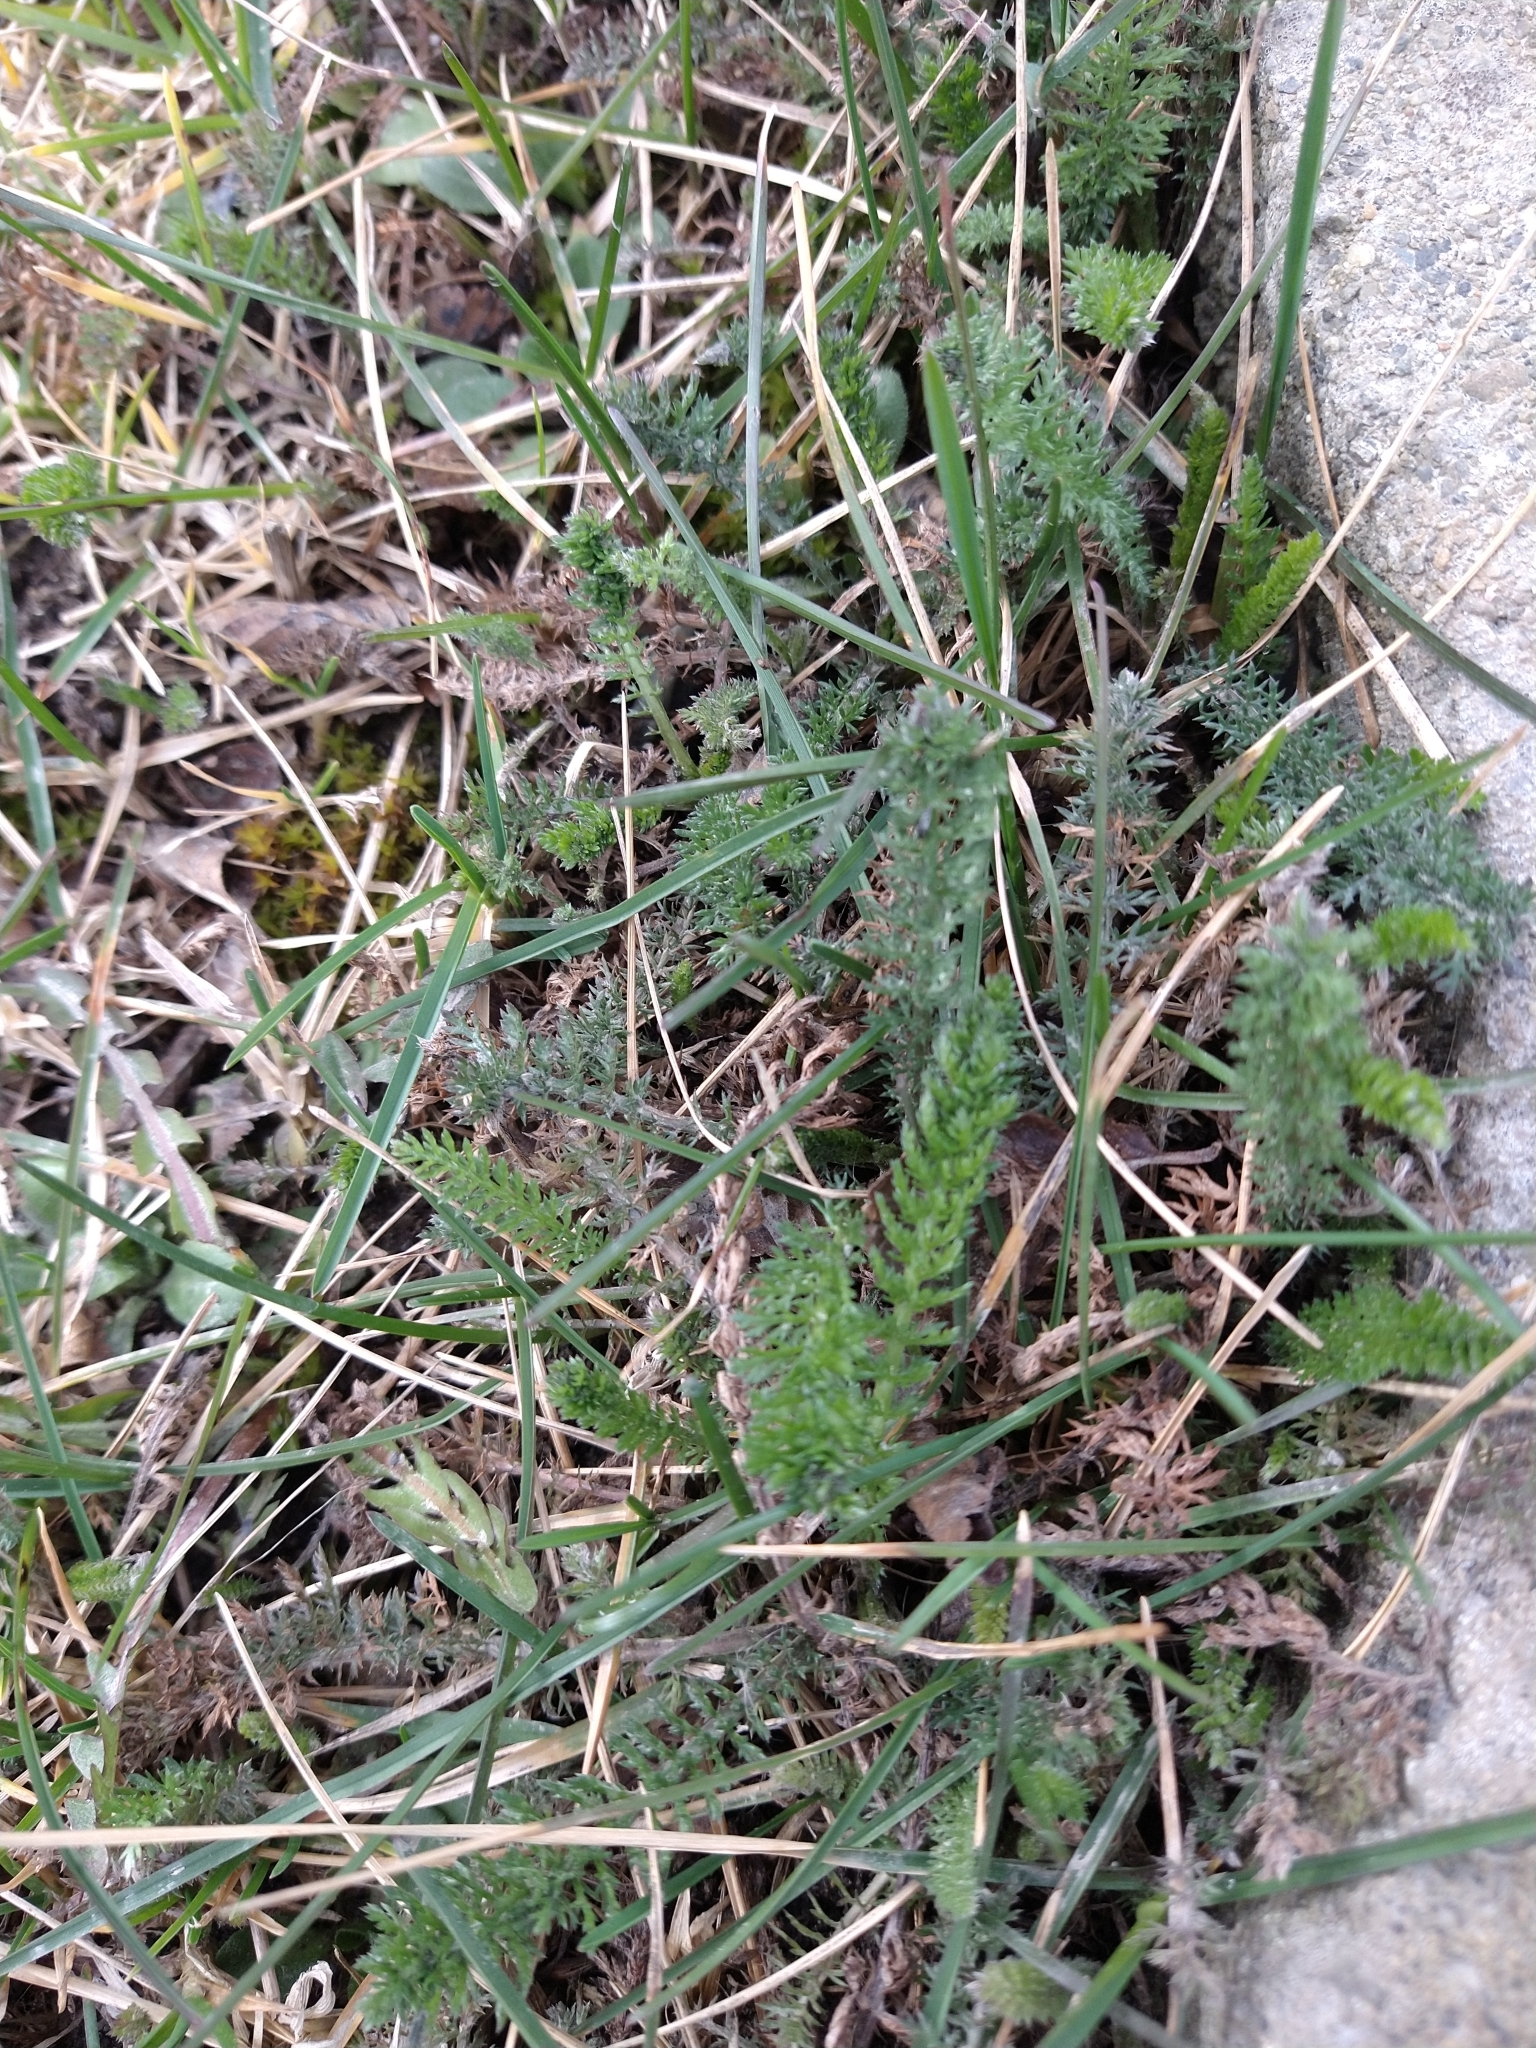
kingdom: Plantae
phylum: Tracheophyta
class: Magnoliopsida
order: Asterales
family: Asteraceae
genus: Achillea
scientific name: Achillea millefolium
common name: Yarrow
